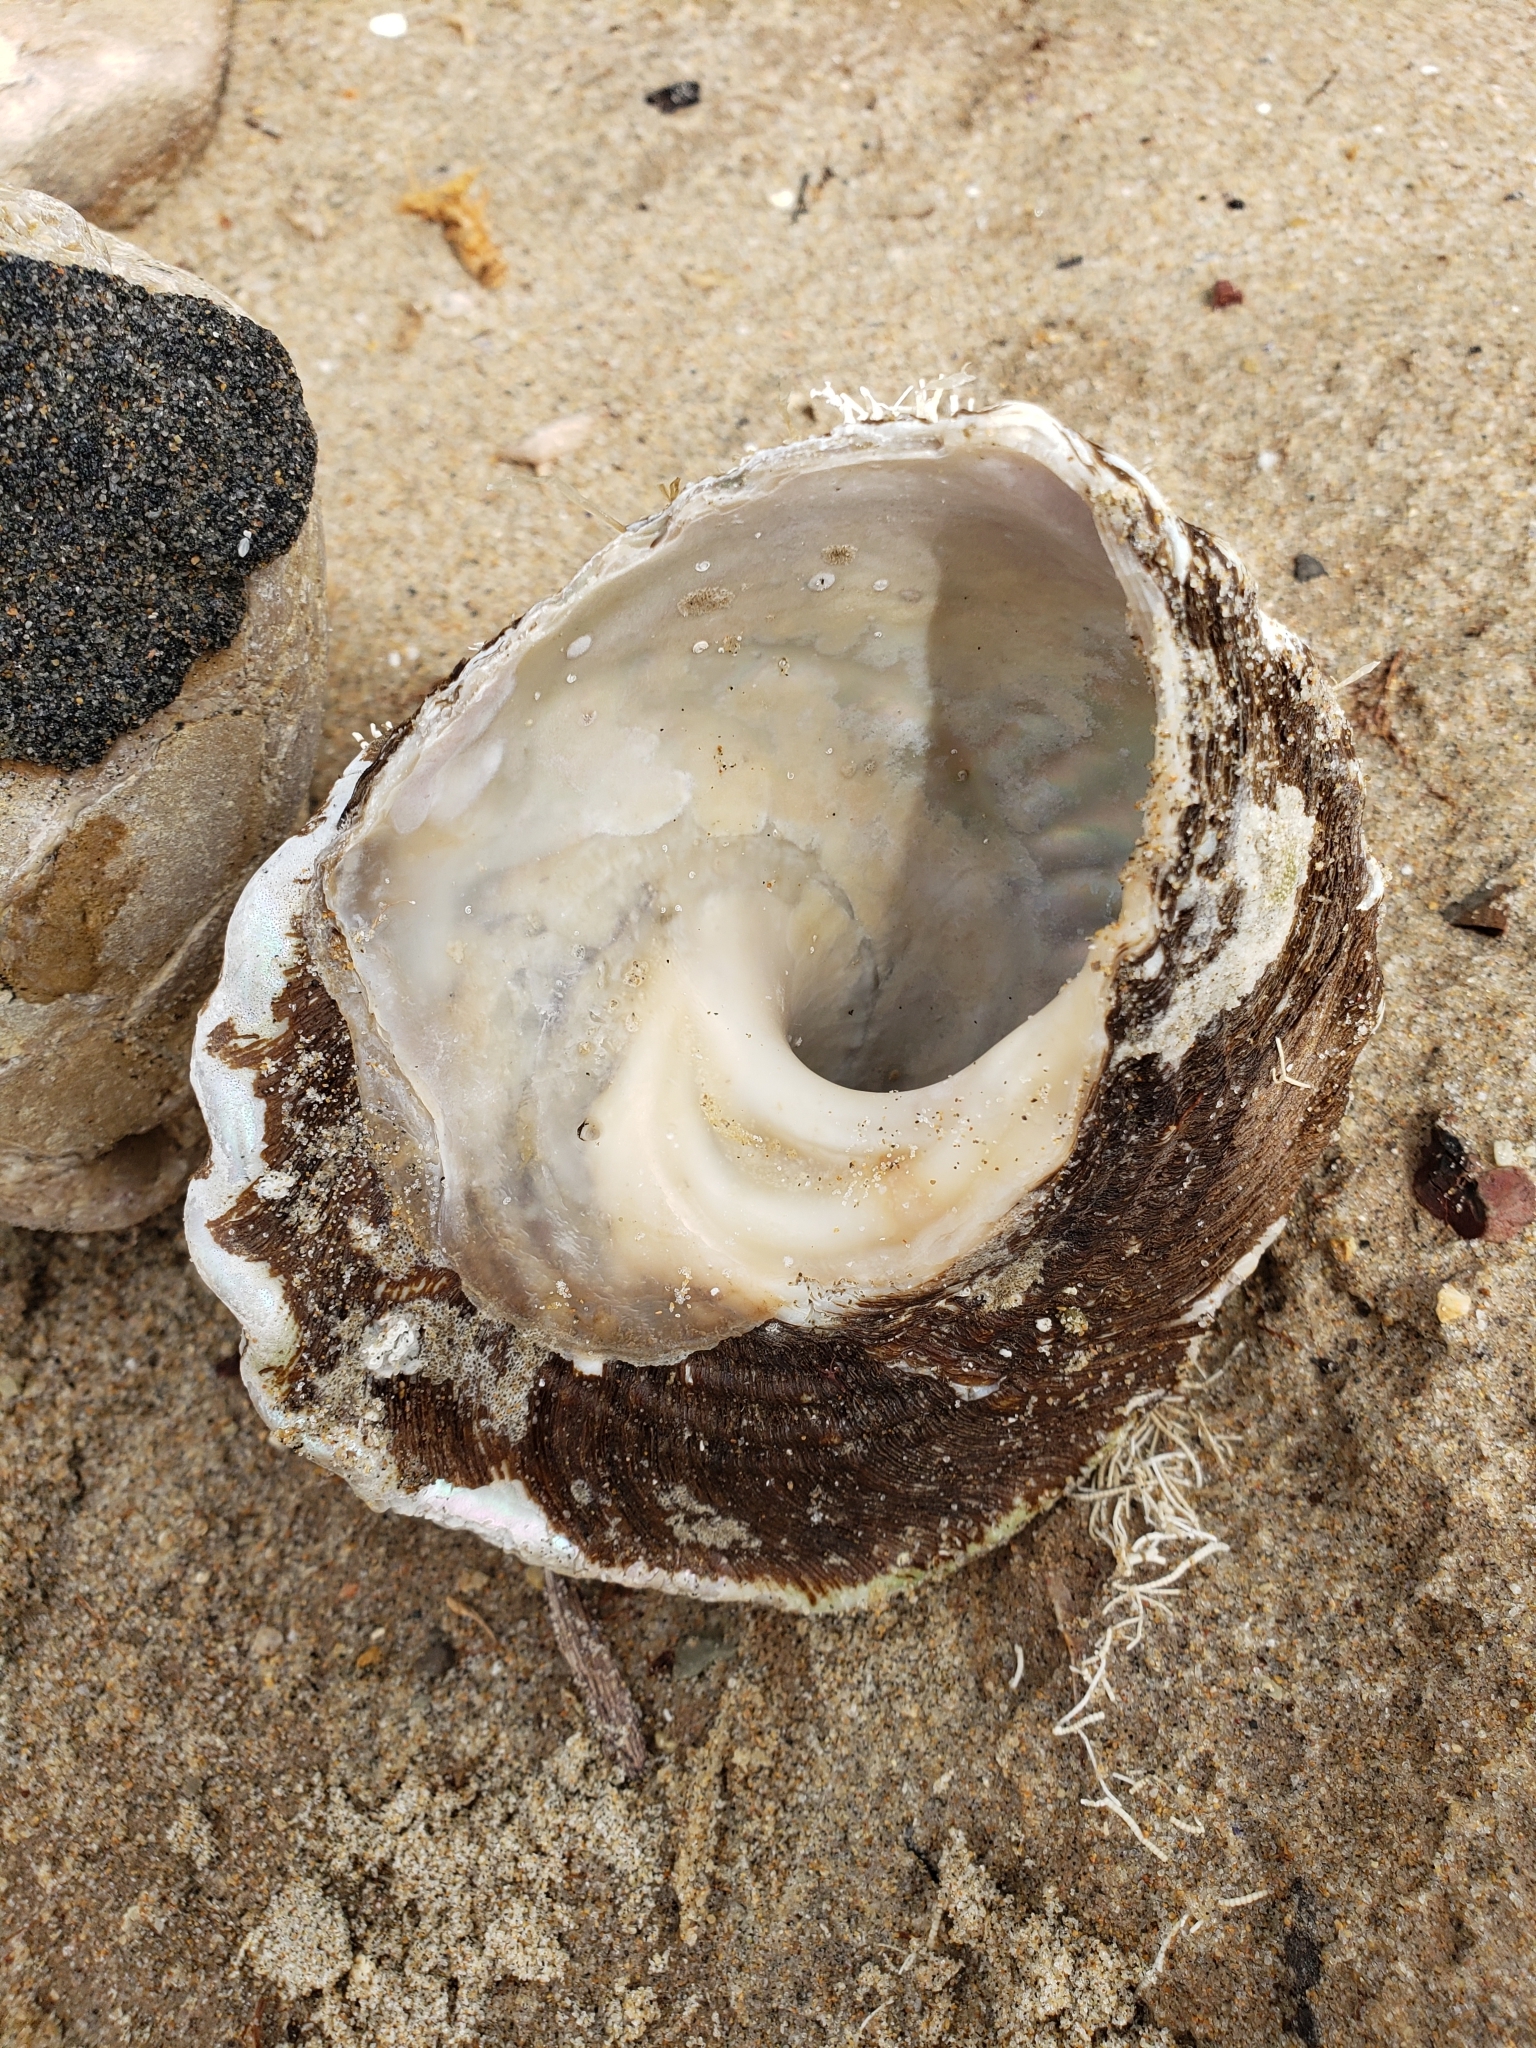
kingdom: Animalia
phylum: Mollusca
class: Gastropoda
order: Trochida
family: Turbinidae
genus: Megastraea
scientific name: Megastraea undosa
